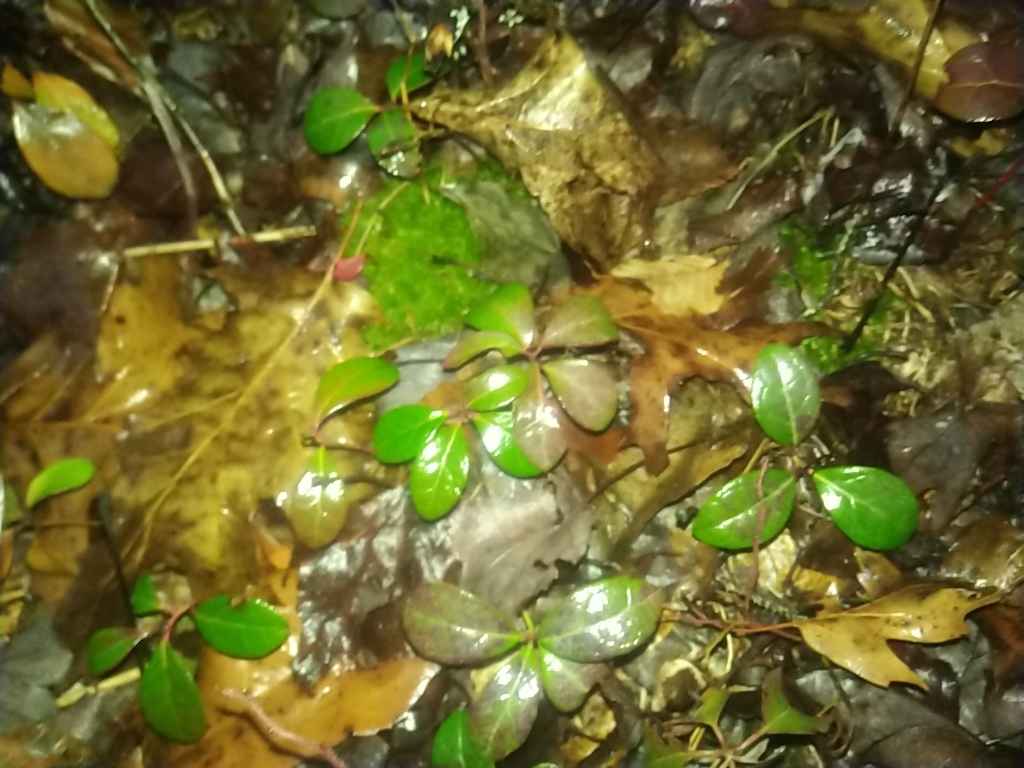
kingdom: Plantae
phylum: Tracheophyta
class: Magnoliopsida
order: Ericales
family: Ericaceae
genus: Gaultheria
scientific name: Gaultheria procumbens
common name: Checkerberry
